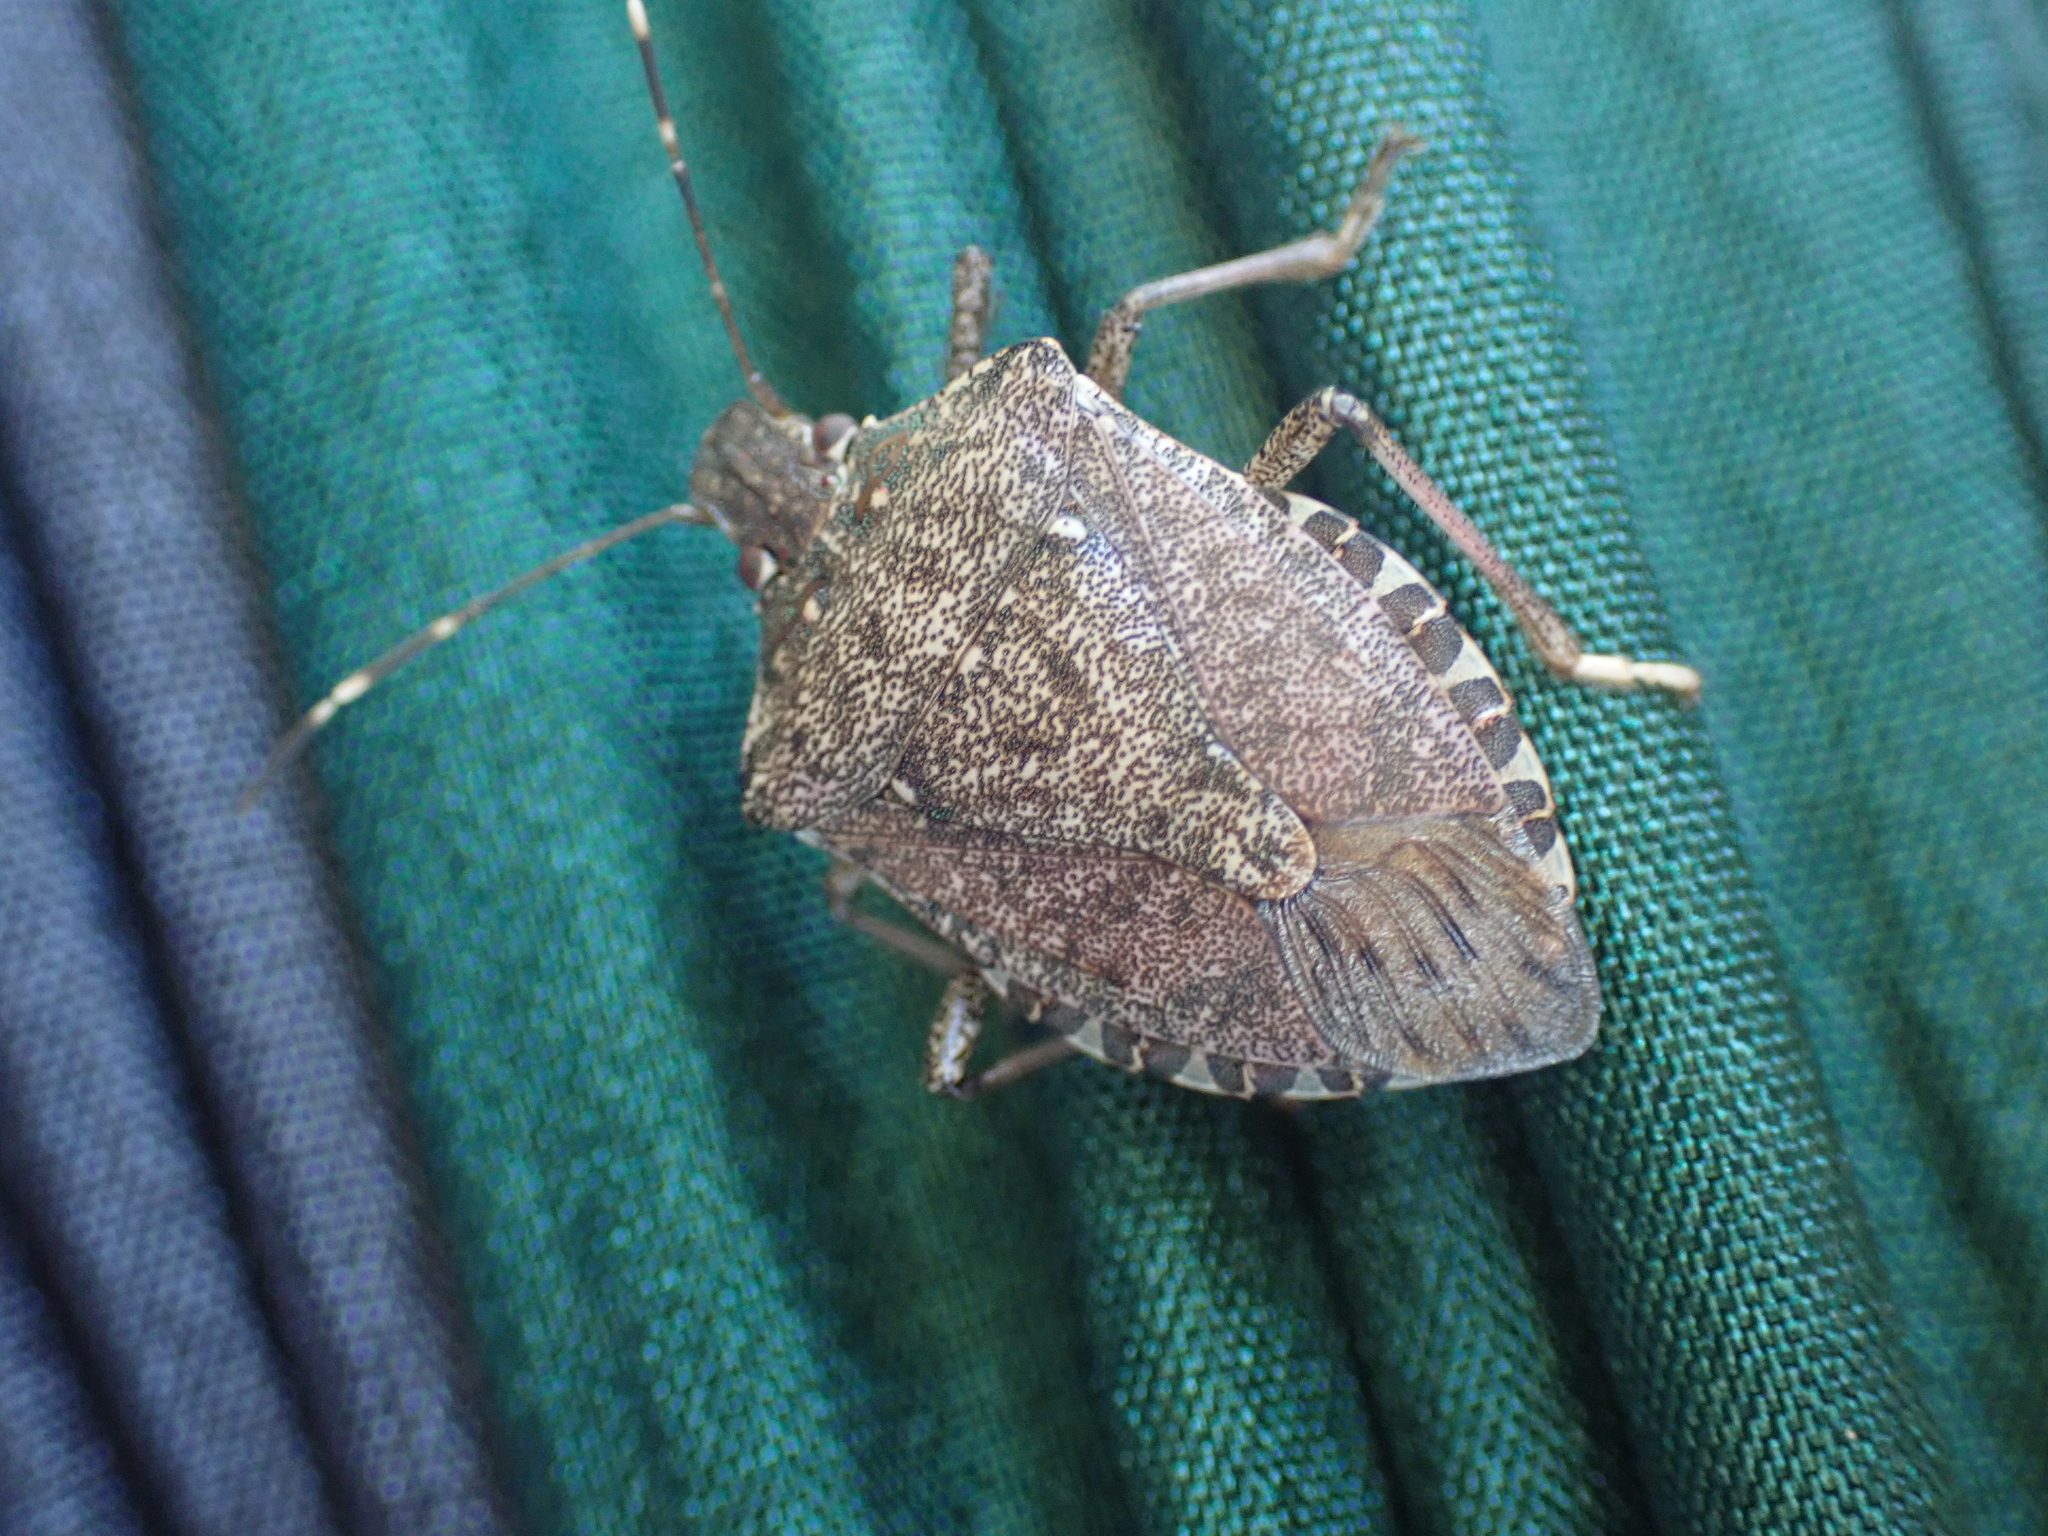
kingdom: Animalia
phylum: Arthropoda
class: Insecta
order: Hemiptera
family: Pentatomidae
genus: Halyomorpha
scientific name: Halyomorpha halys
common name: Brown marmorated stink bug
